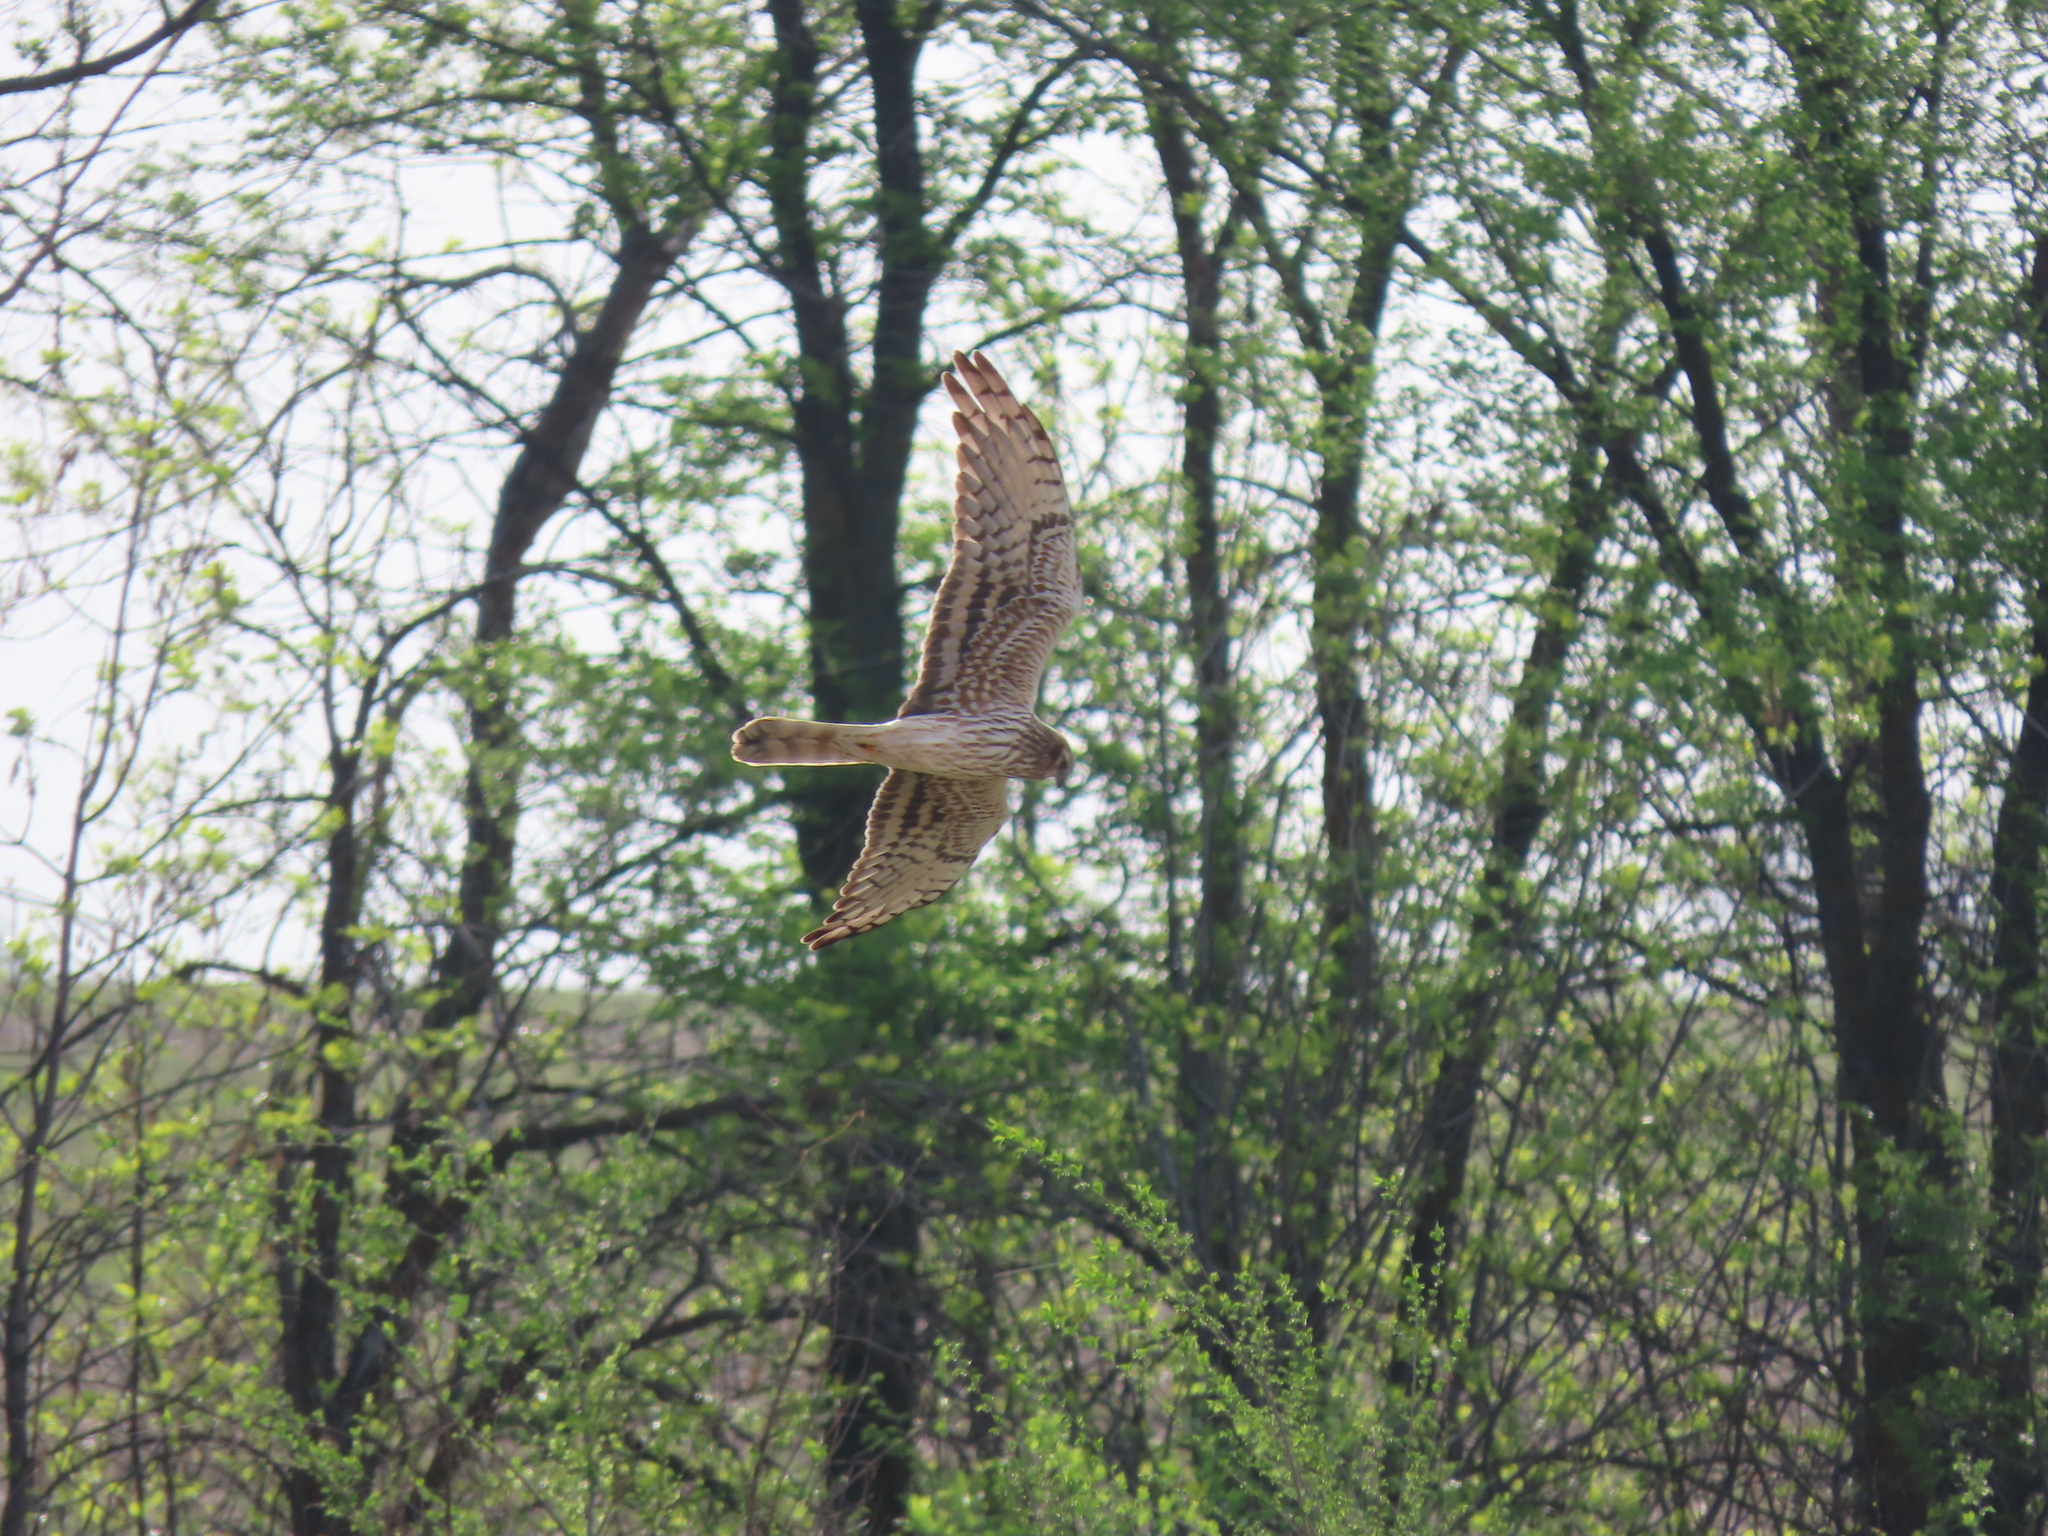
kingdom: Animalia
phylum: Chordata
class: Aves
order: Accipitriformes
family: Accipitridae
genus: Circus
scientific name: Circus pygargus
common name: Montagu's harrier
